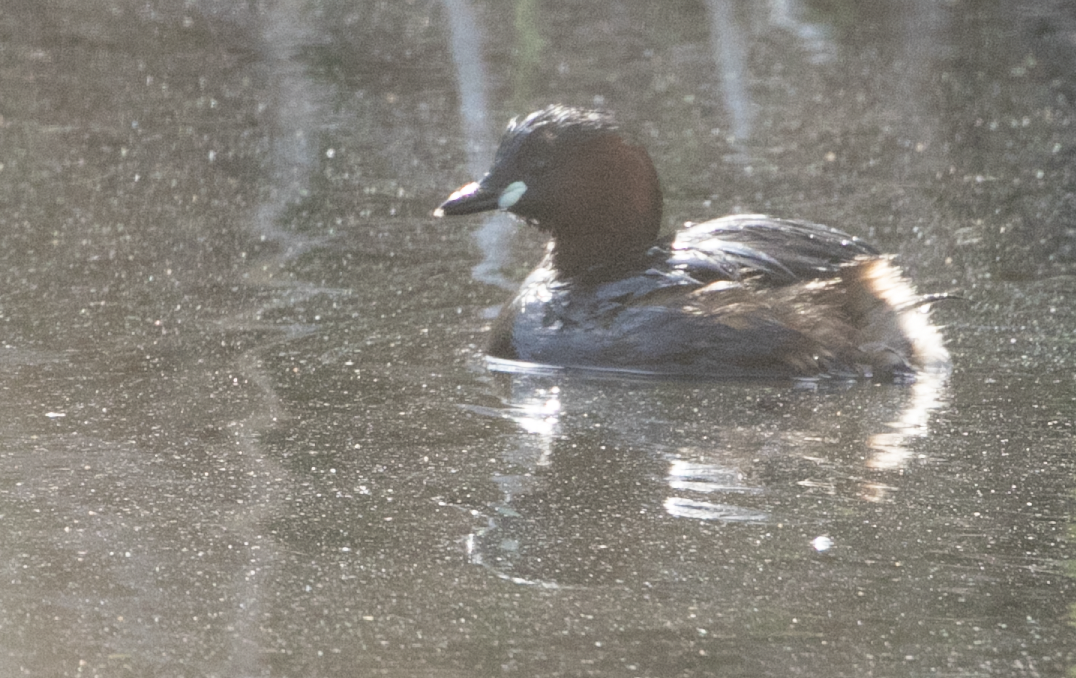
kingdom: Animalia
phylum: Chordata
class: Aves
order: Podicipediformes
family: Podicipedidae
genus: Tachybaptus
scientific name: Tachybaptus ruficollis
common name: Little grebe
